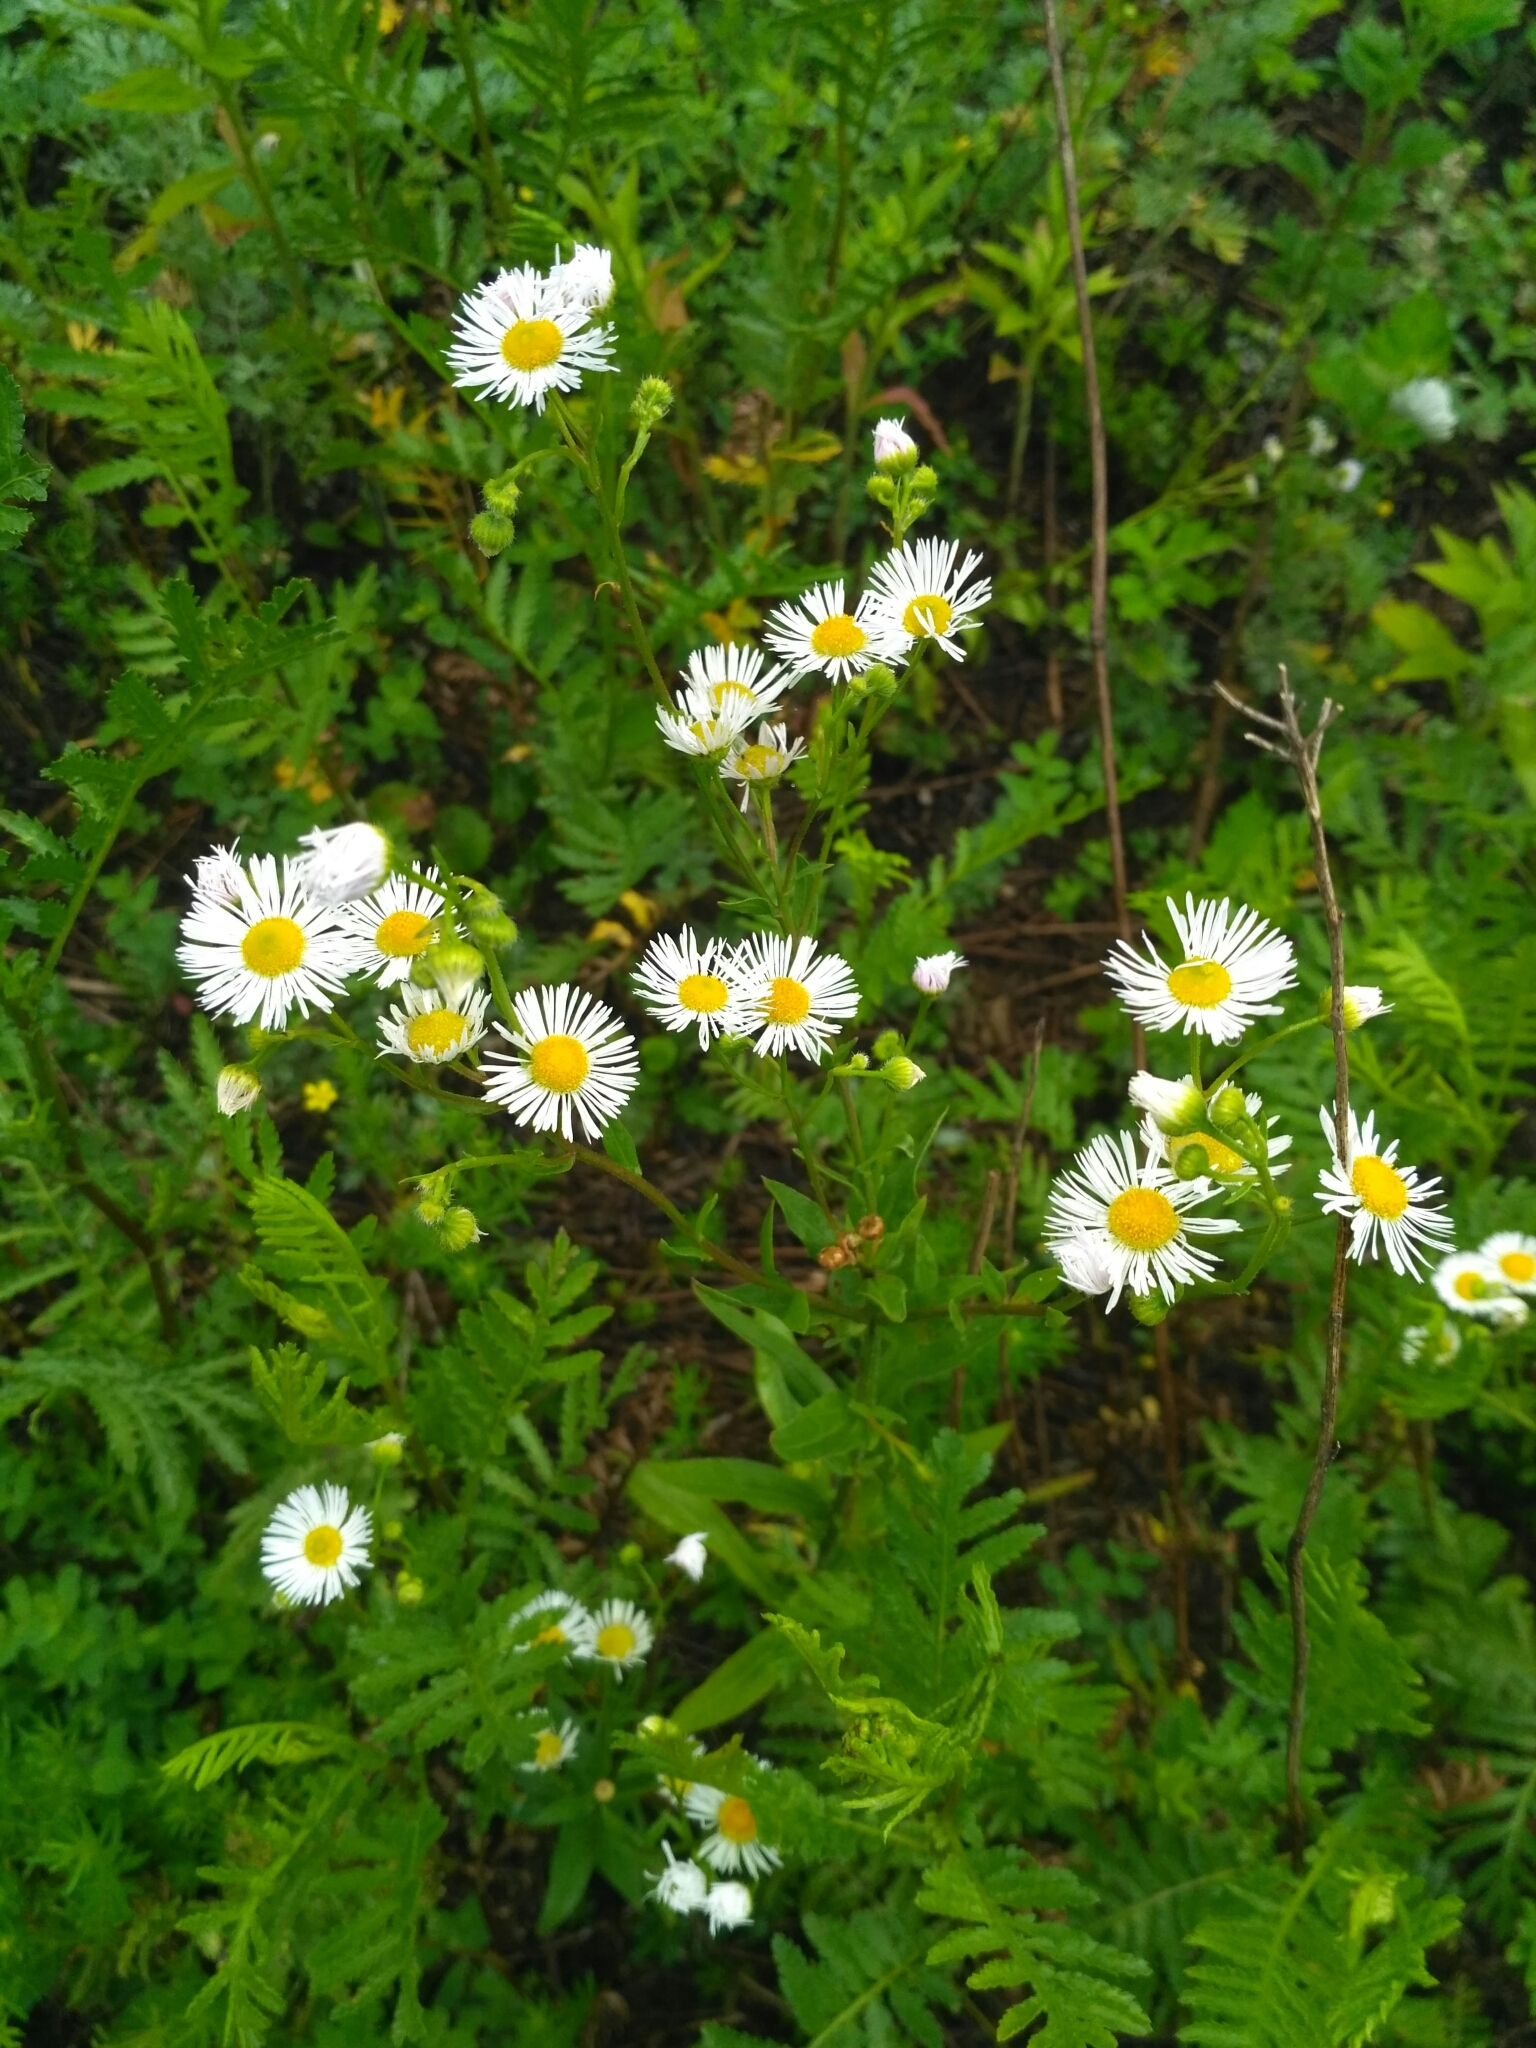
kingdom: Plantae
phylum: Tracheophyta
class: Magnoliopsida
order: Asterales
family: Asteraceae
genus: Erigeron
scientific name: Erigeron annuus
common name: Tall fleabane
